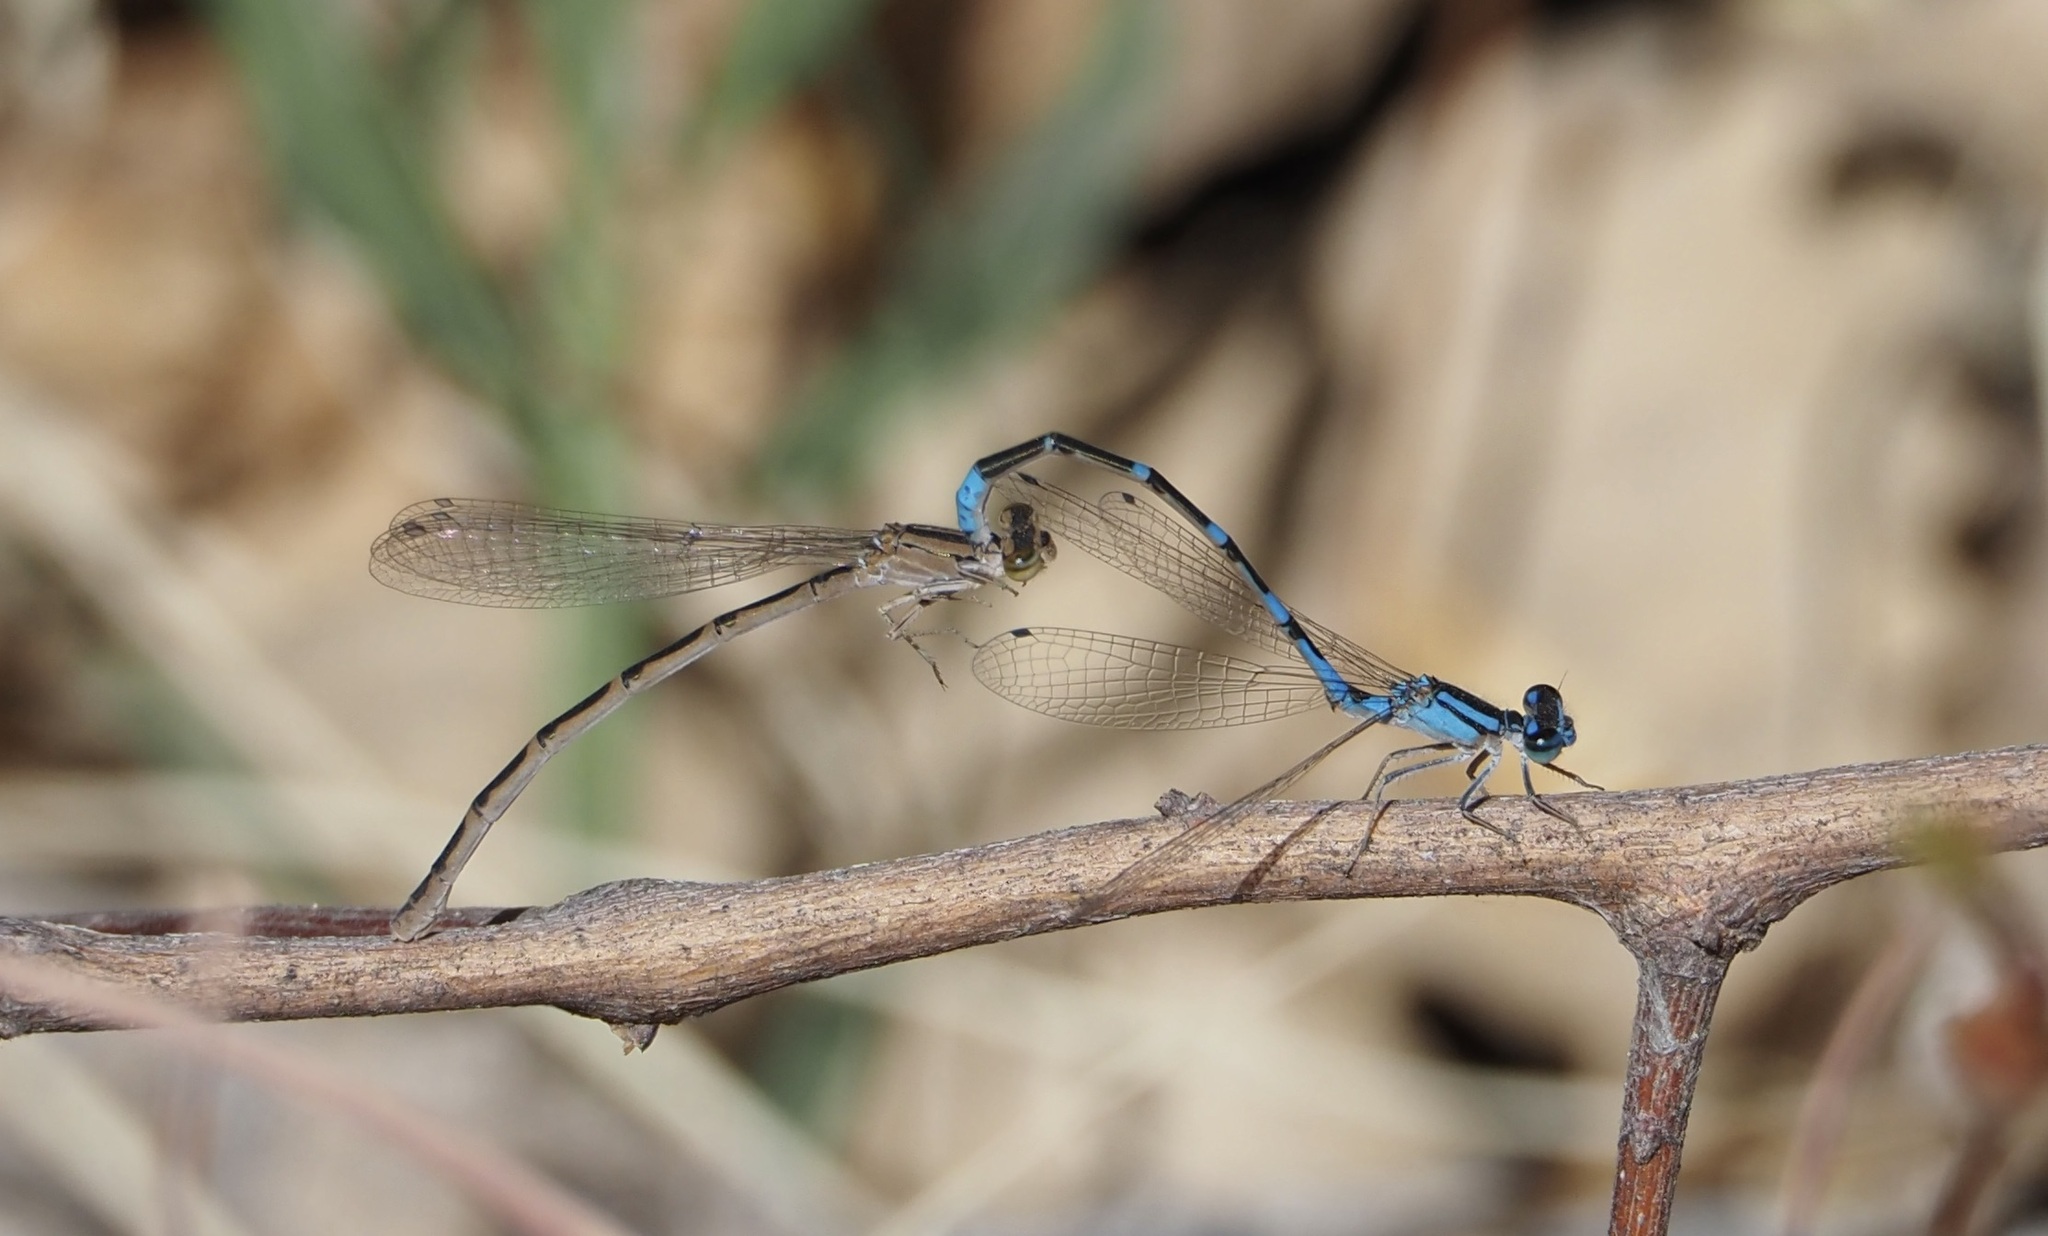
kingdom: Animalia
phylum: Arthropoda
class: Insecta
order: Odonata
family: Coenagrionidae
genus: Enallagma
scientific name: Enallagma praevarum
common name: Arroyo bluet
